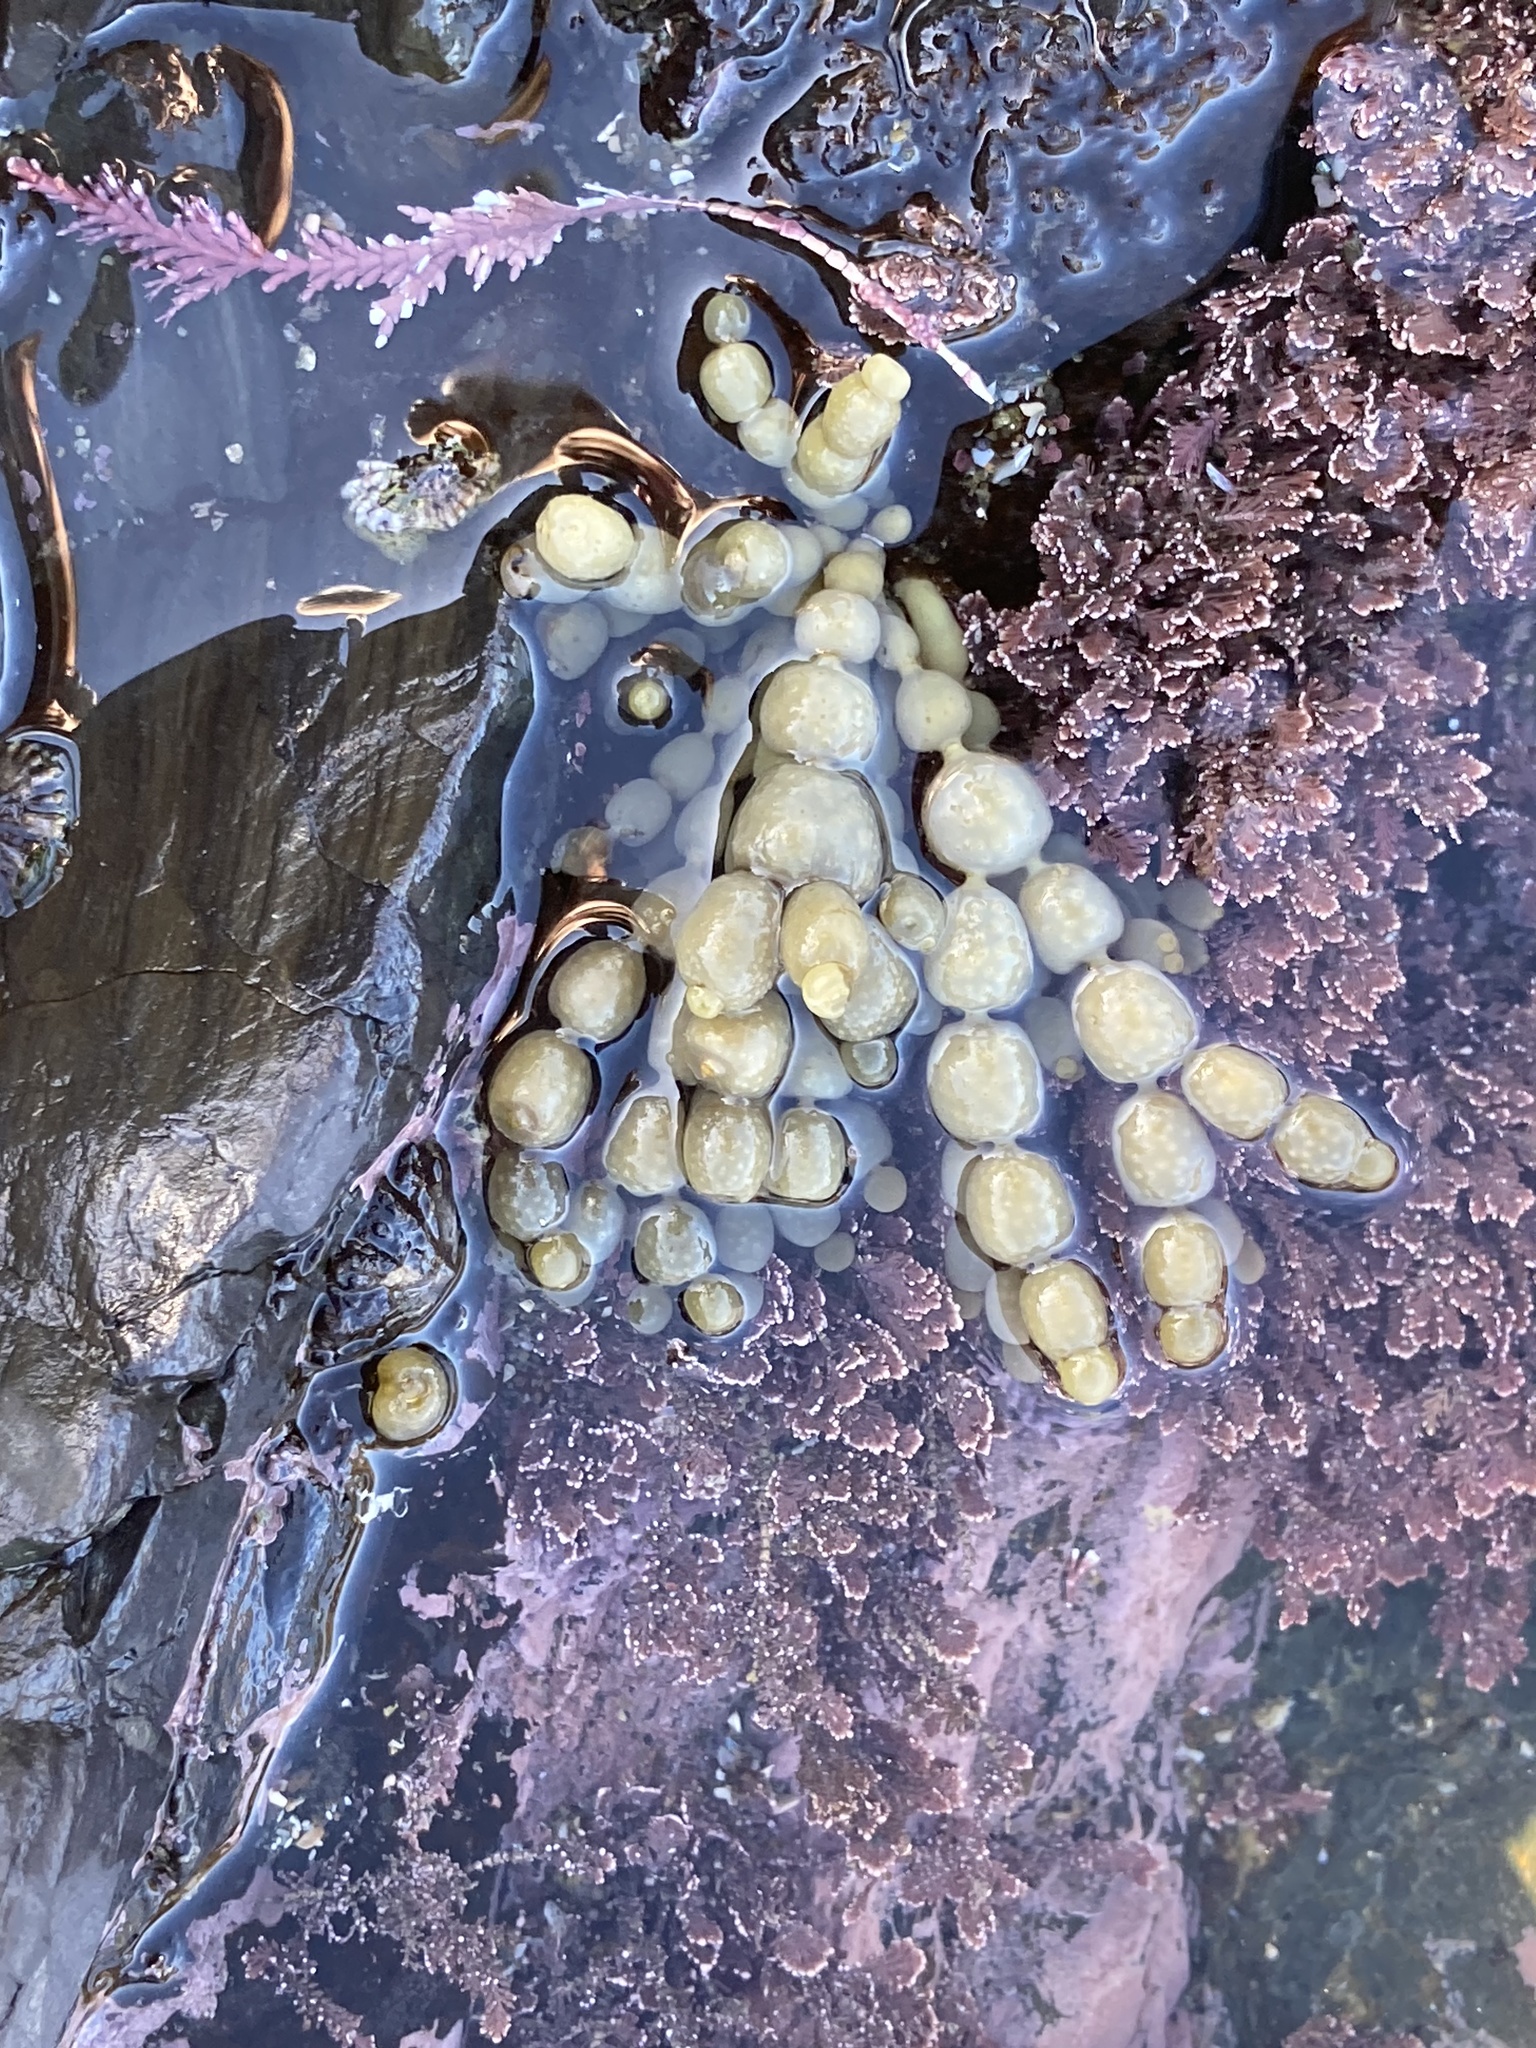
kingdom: Chromista
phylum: Ochrophyta
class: Phaeophyceae
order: Fucales
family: Hormosiraceae
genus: Hormosira
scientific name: Hormosira banksii
